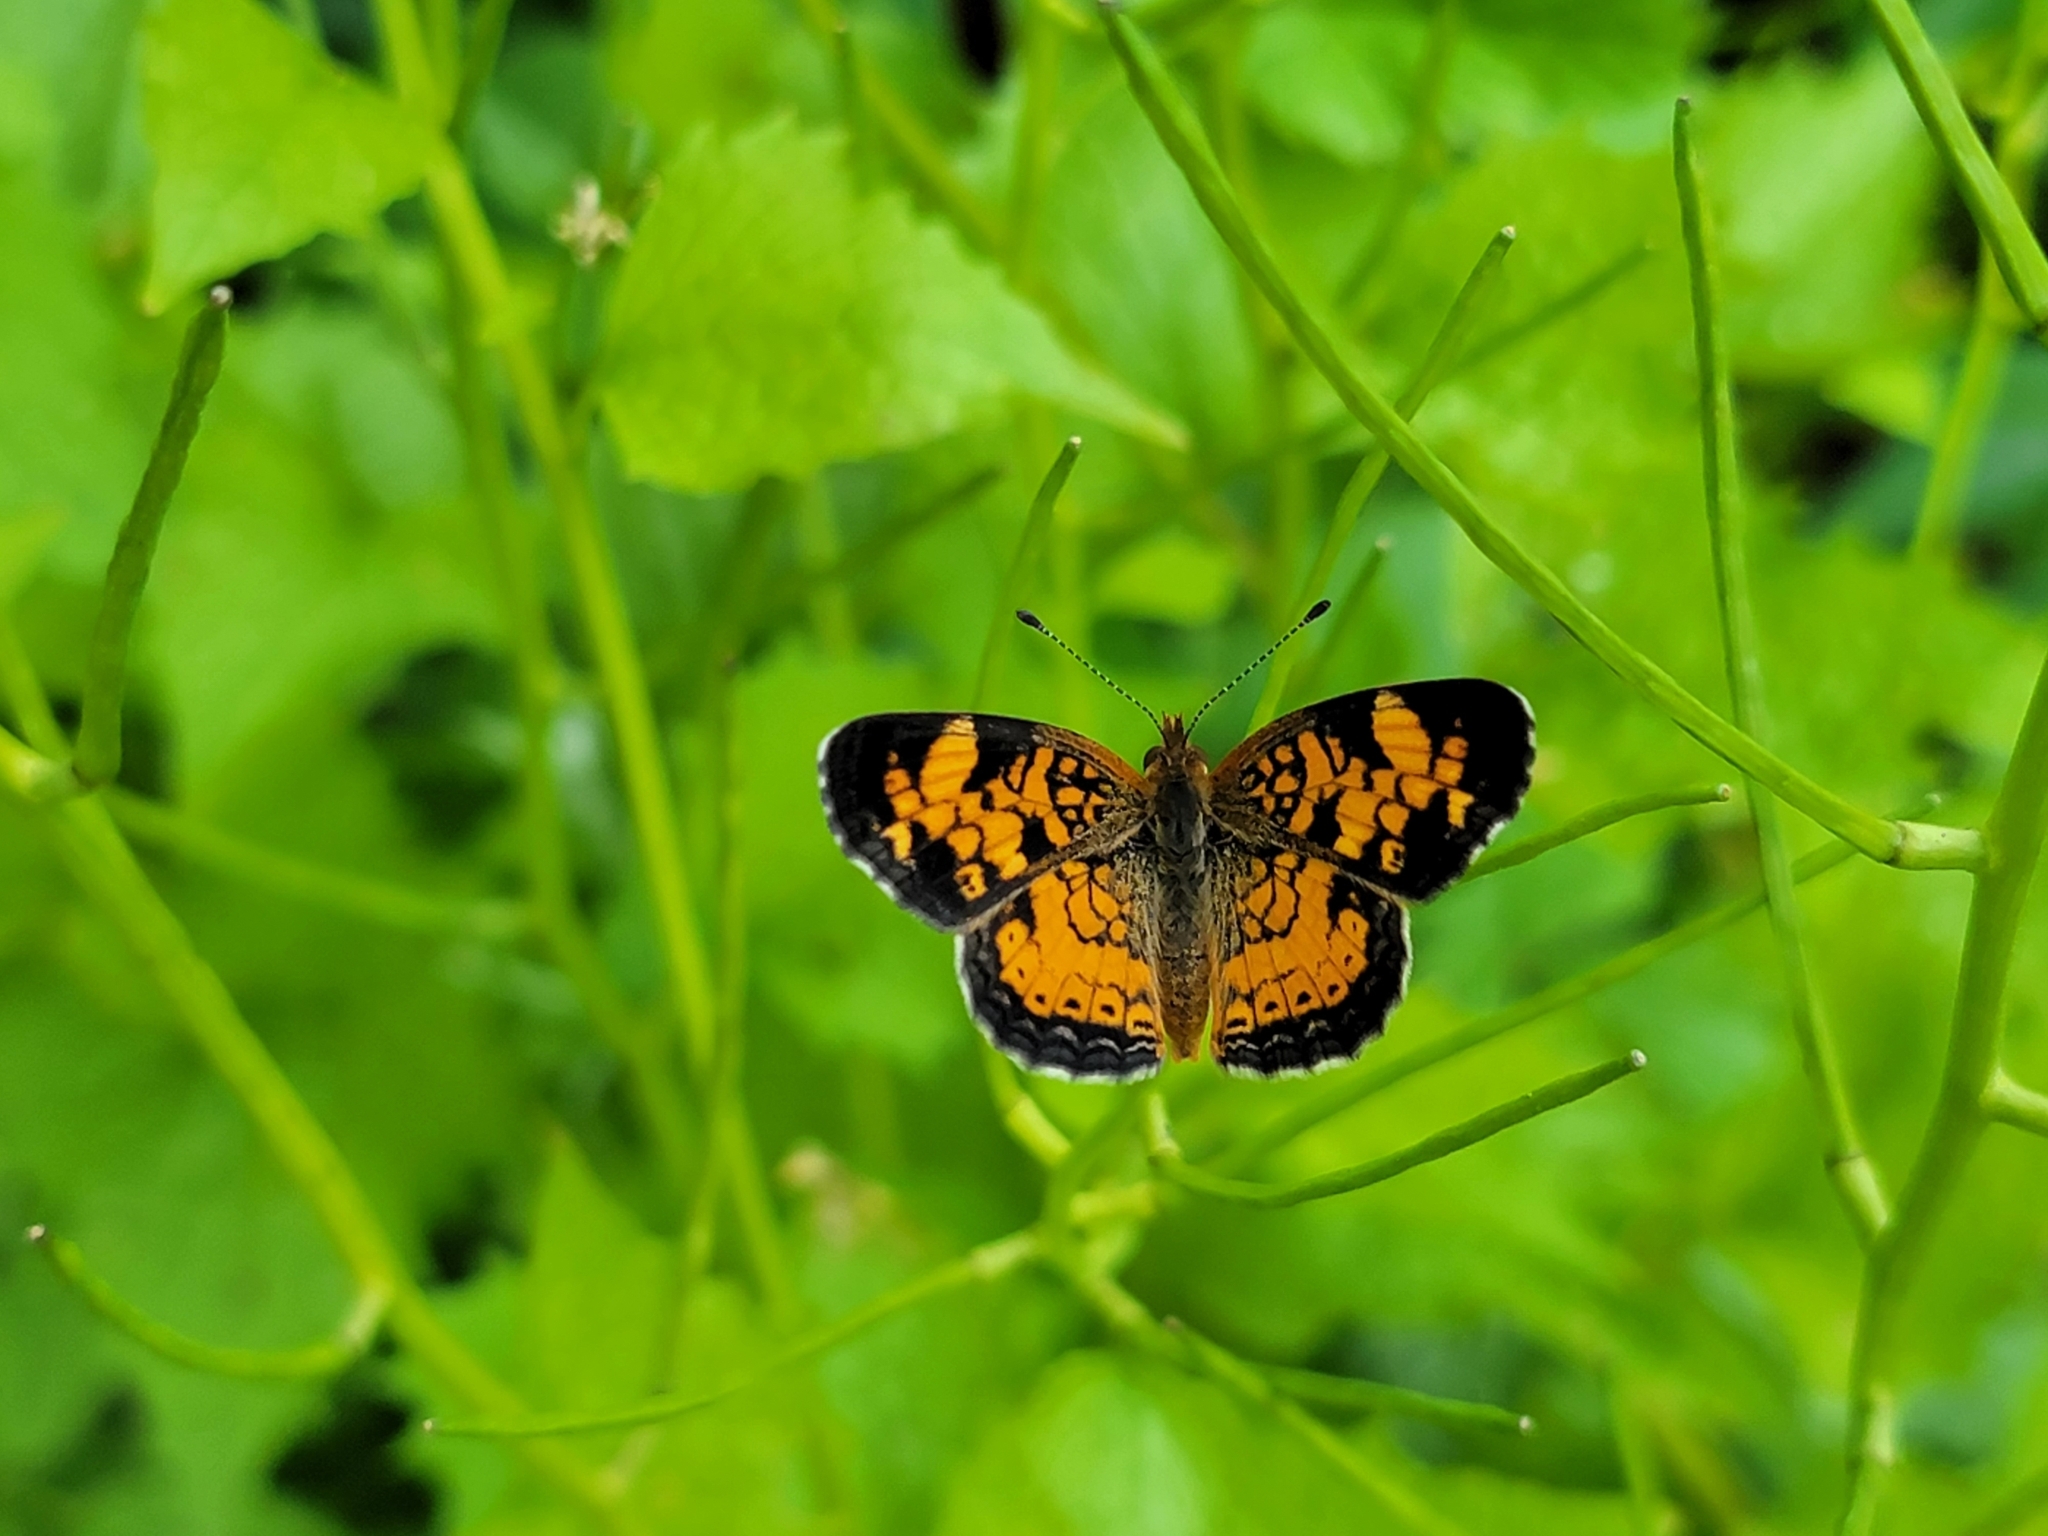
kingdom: Animalia
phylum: Arthropoda
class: Insecta
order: Lepidoptera
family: Nymphalidae
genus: Phyciodes
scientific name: Phyciodes tharos
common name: Pearl crescent
